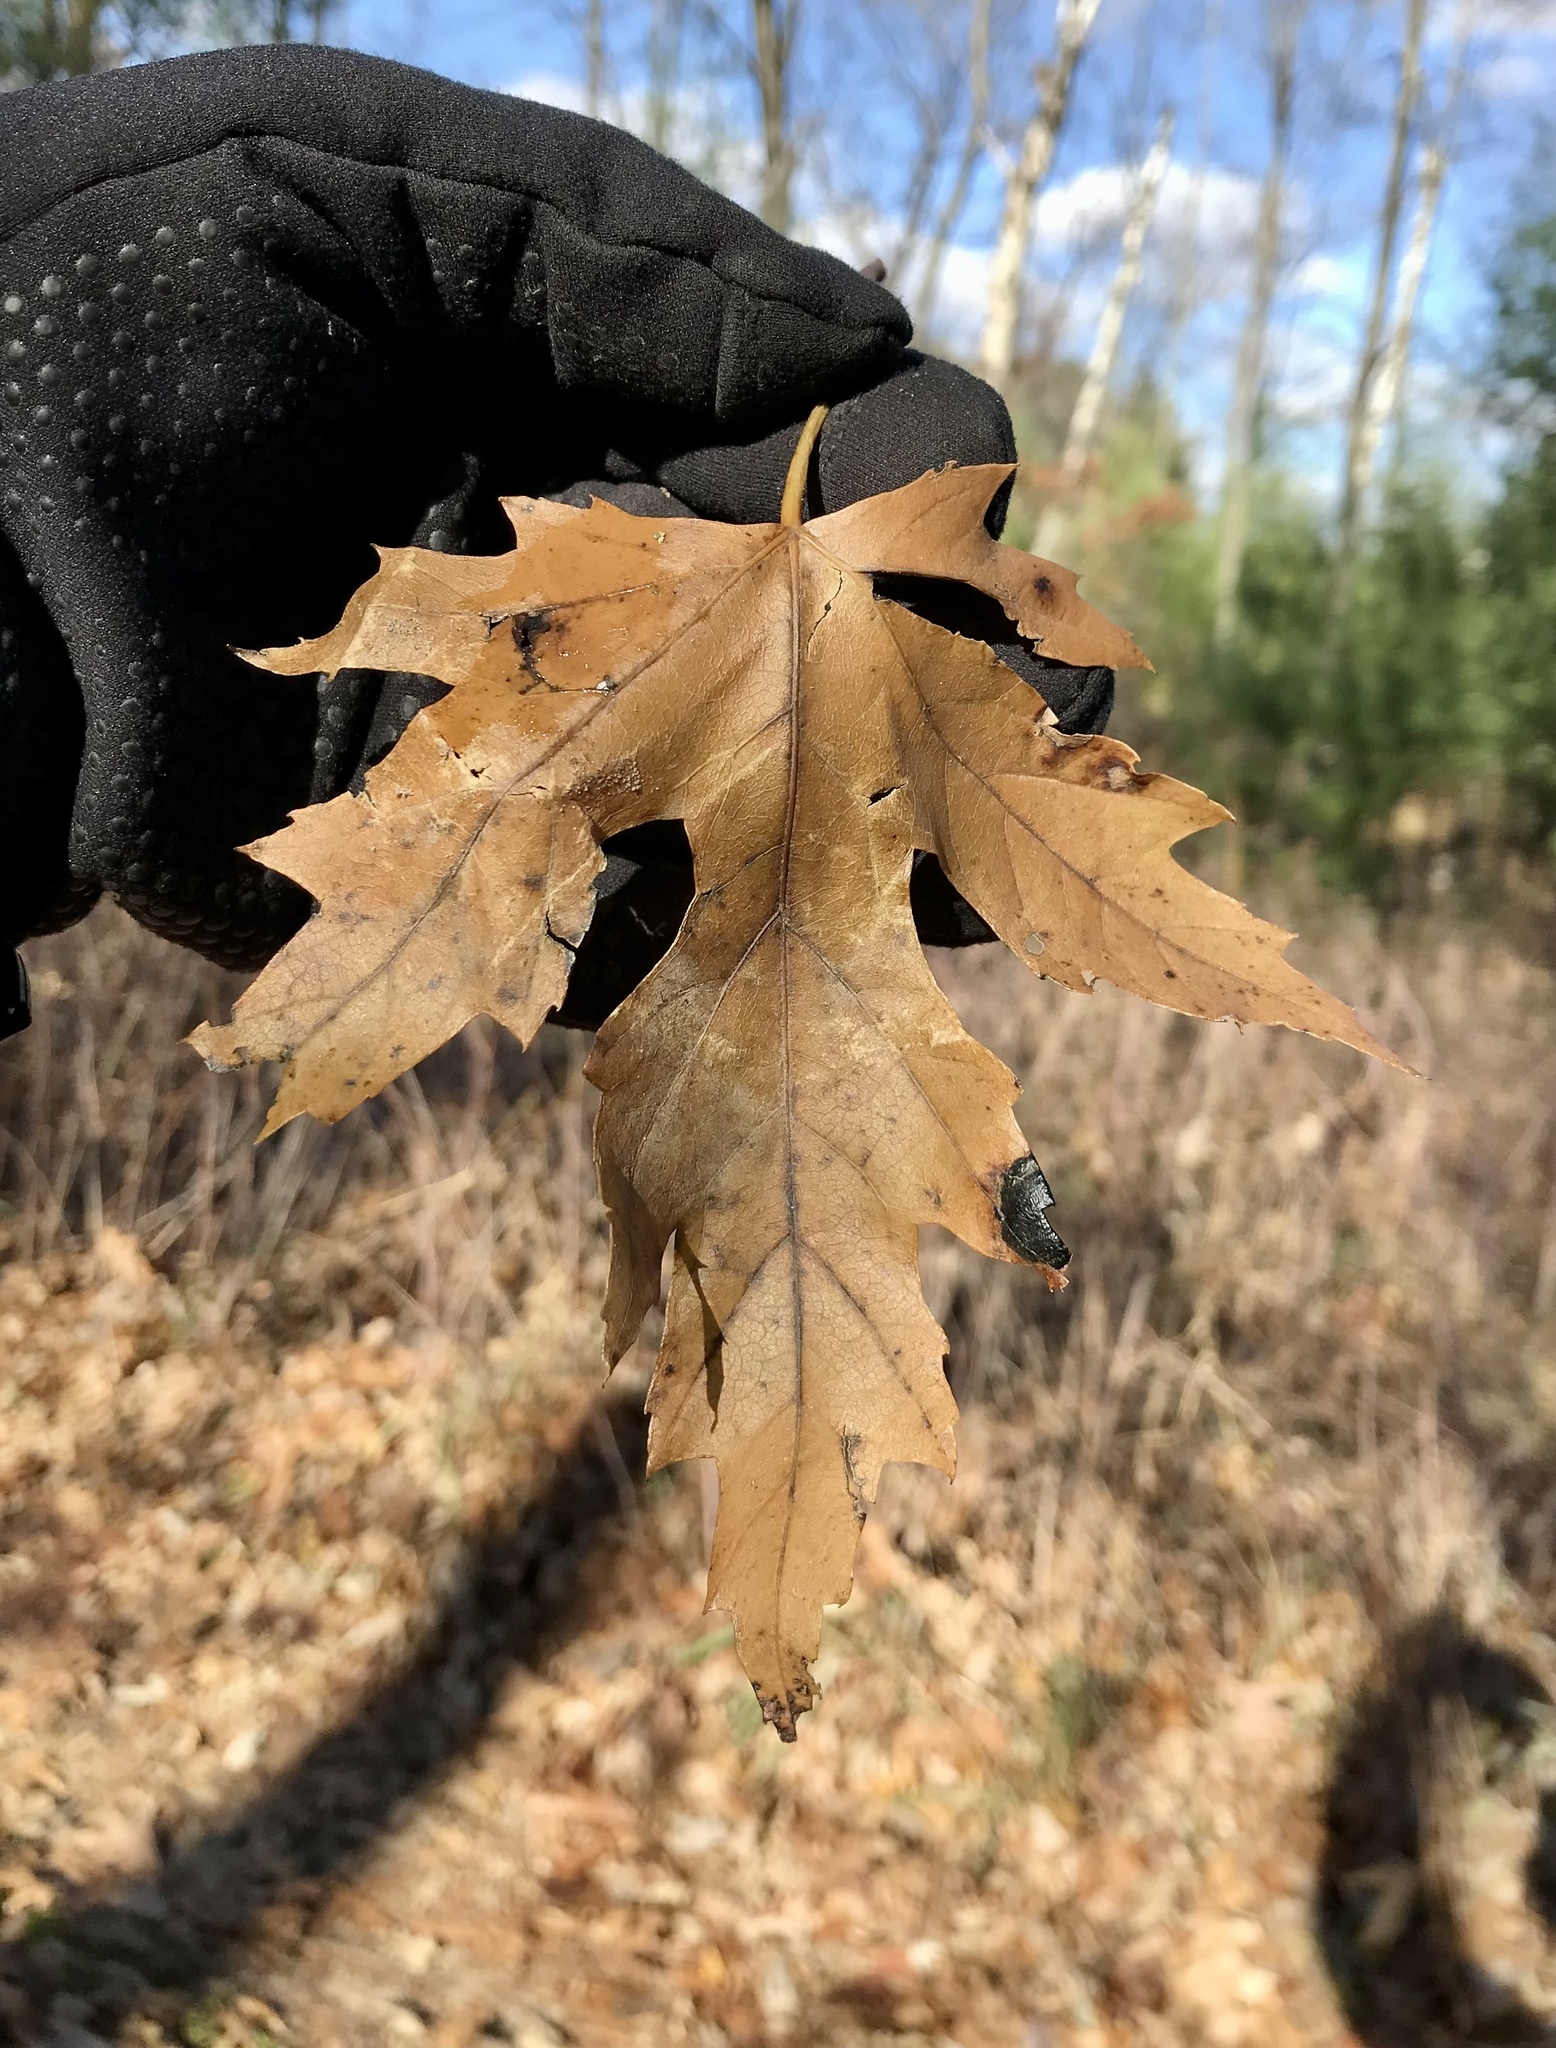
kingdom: Plantae
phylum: Tracheophyta
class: Magnoliopsida
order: Sapindales
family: Sapindaceae
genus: Acer
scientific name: Acer saccharinum
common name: Silver maple
